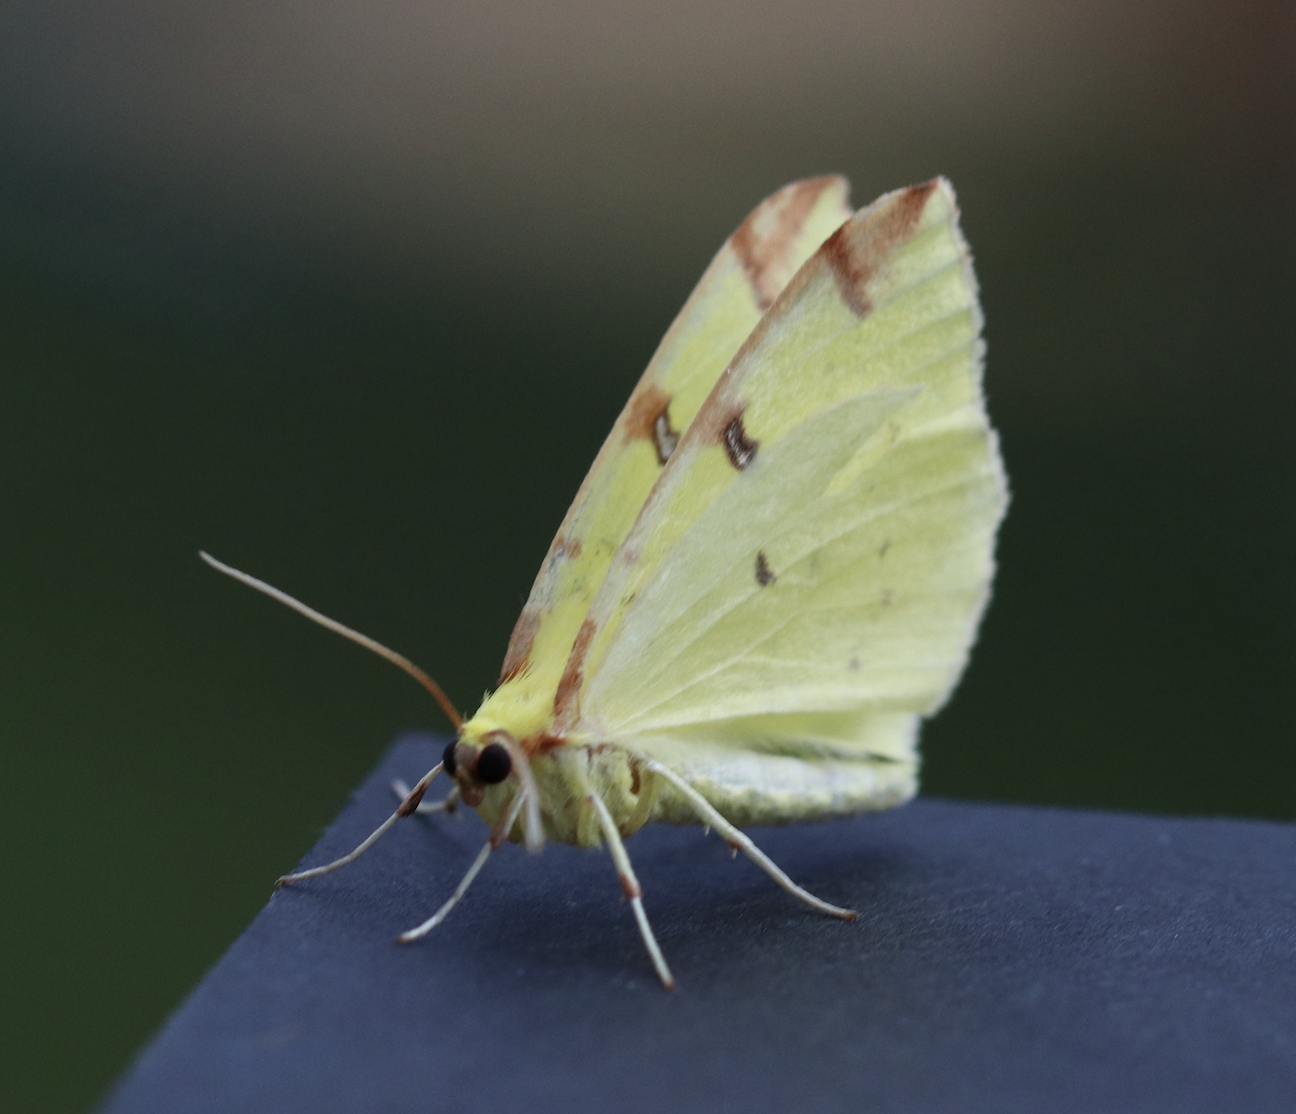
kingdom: Animalia
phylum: Arthropoda
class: Insecta
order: Lepidoptera
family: Geometridae
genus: Opisthograptis
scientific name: Opisthograptis luteolata
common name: Brimstone moth
